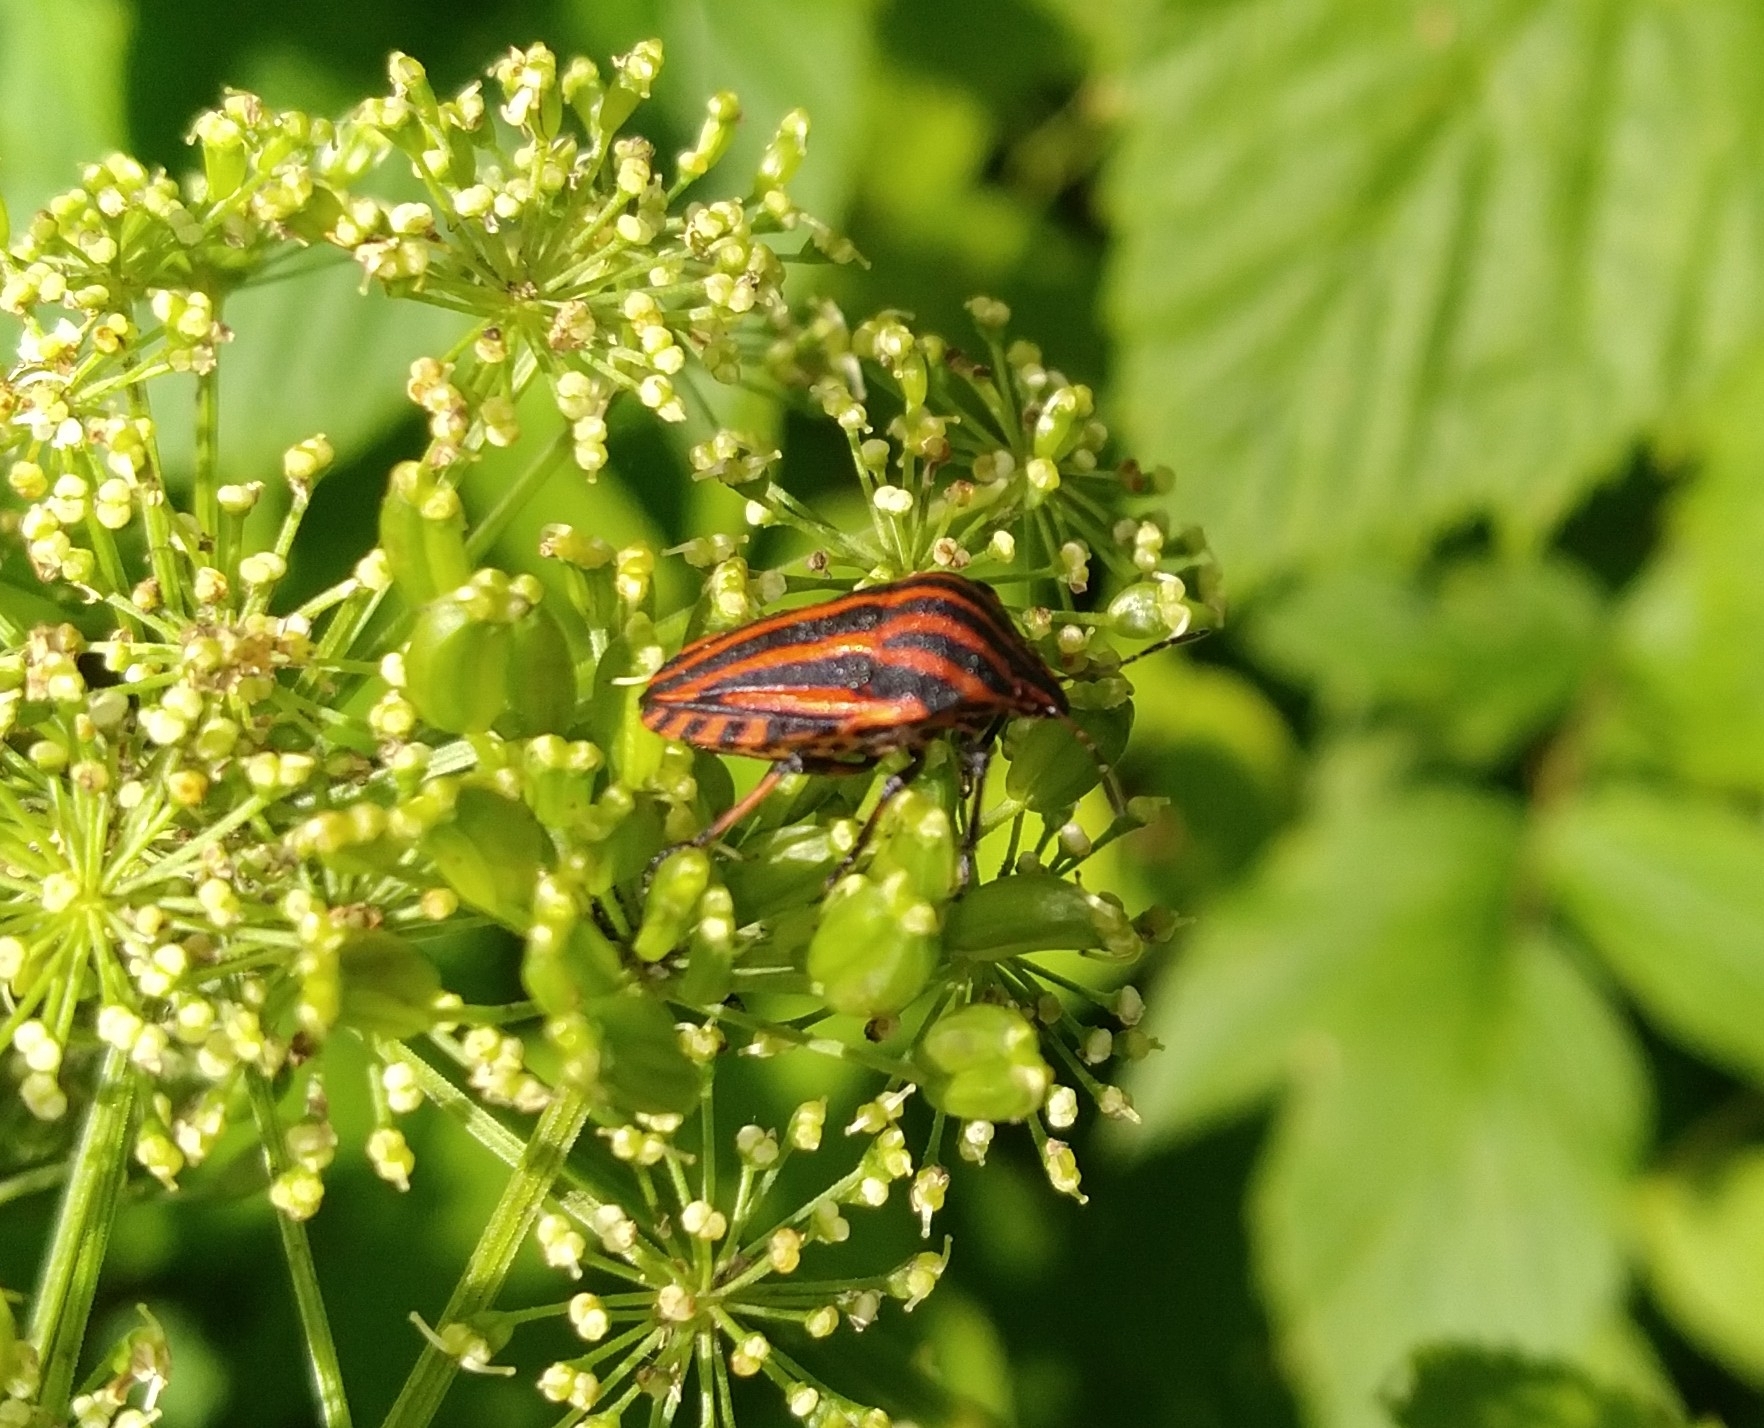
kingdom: Animalia
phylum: Arthropoda
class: Insecta
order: Hemiptera
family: Pentatomidae
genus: Graphosoma
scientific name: Graphosoma italicum
